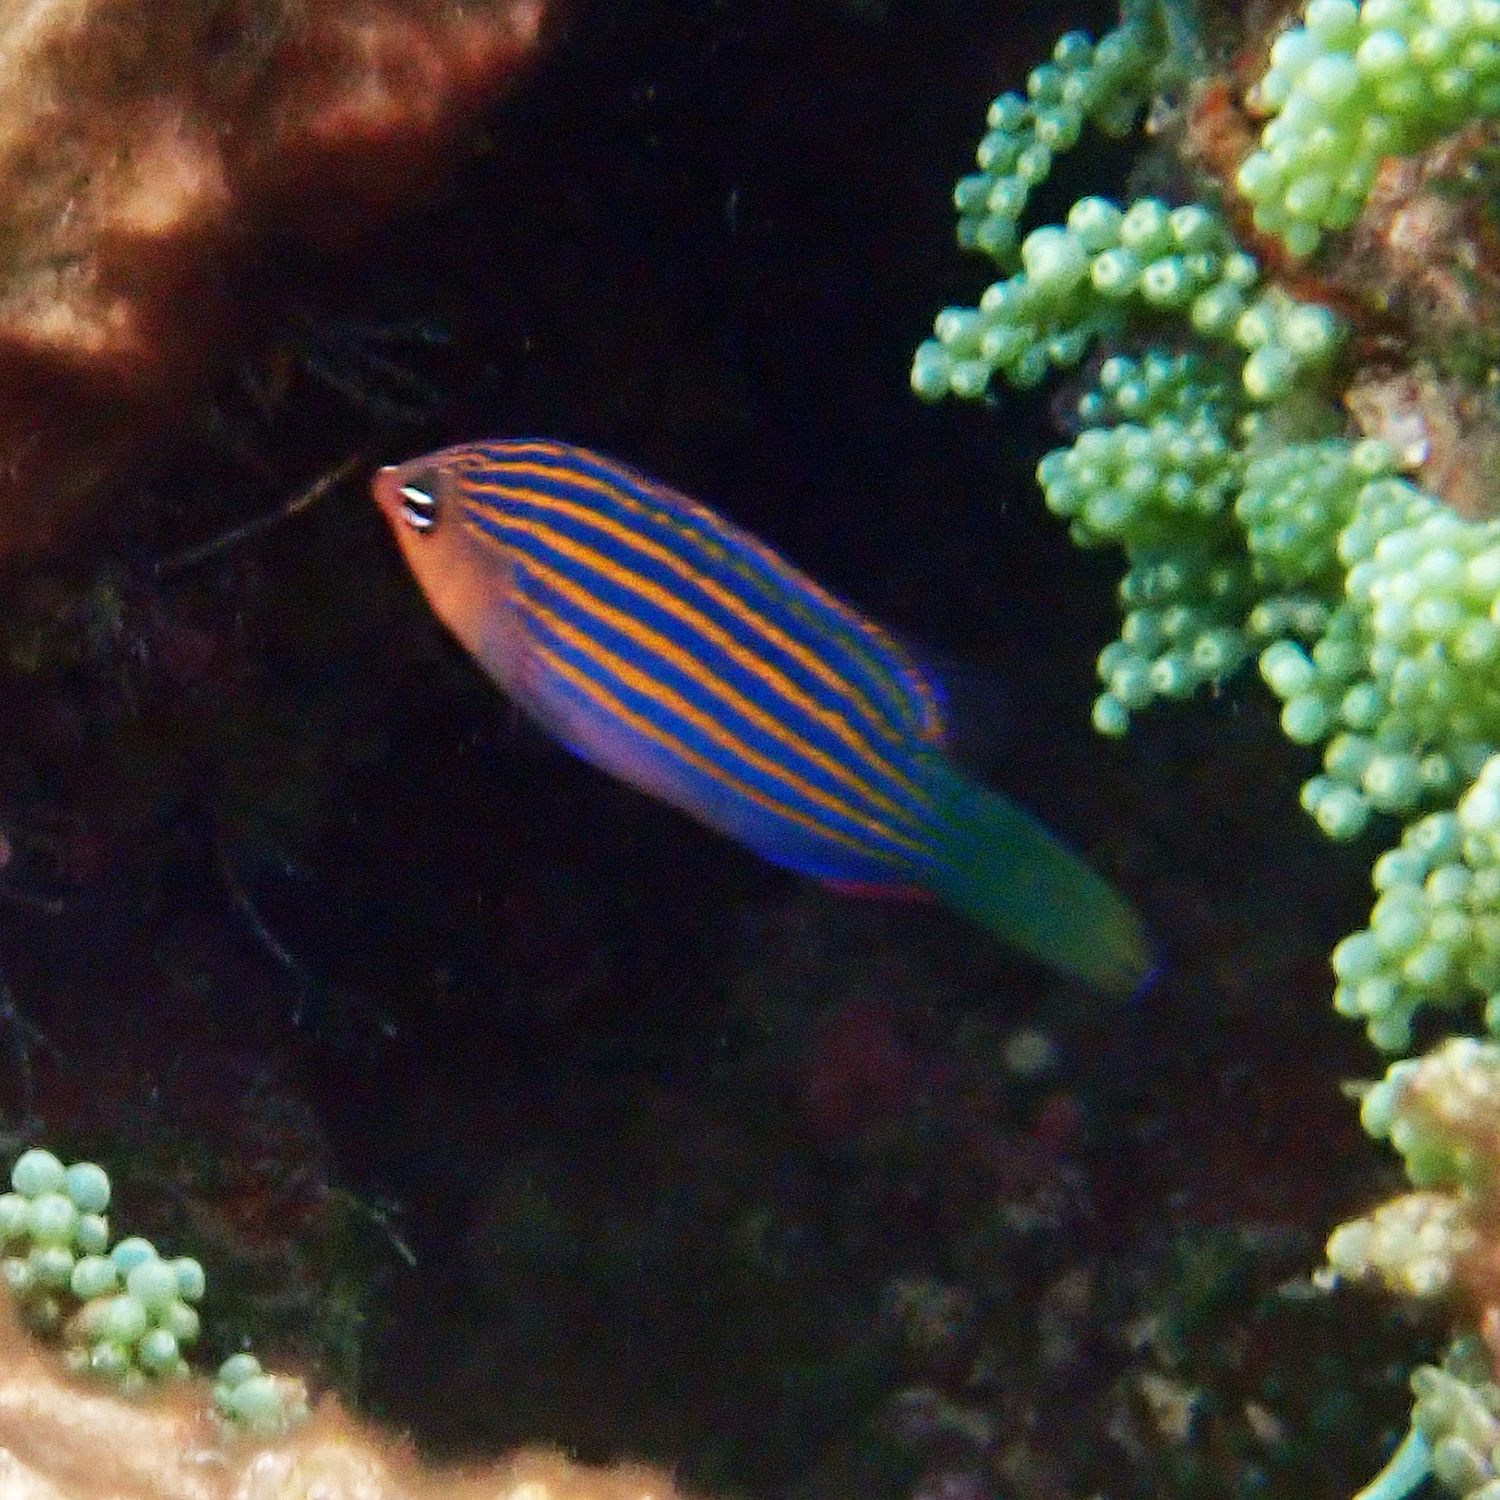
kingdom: Animalia
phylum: Chordata
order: Perciformes
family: Labridae
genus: Pseudocheilinus
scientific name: Pseudocheilinus hexataenia
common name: Sixline wrasse
